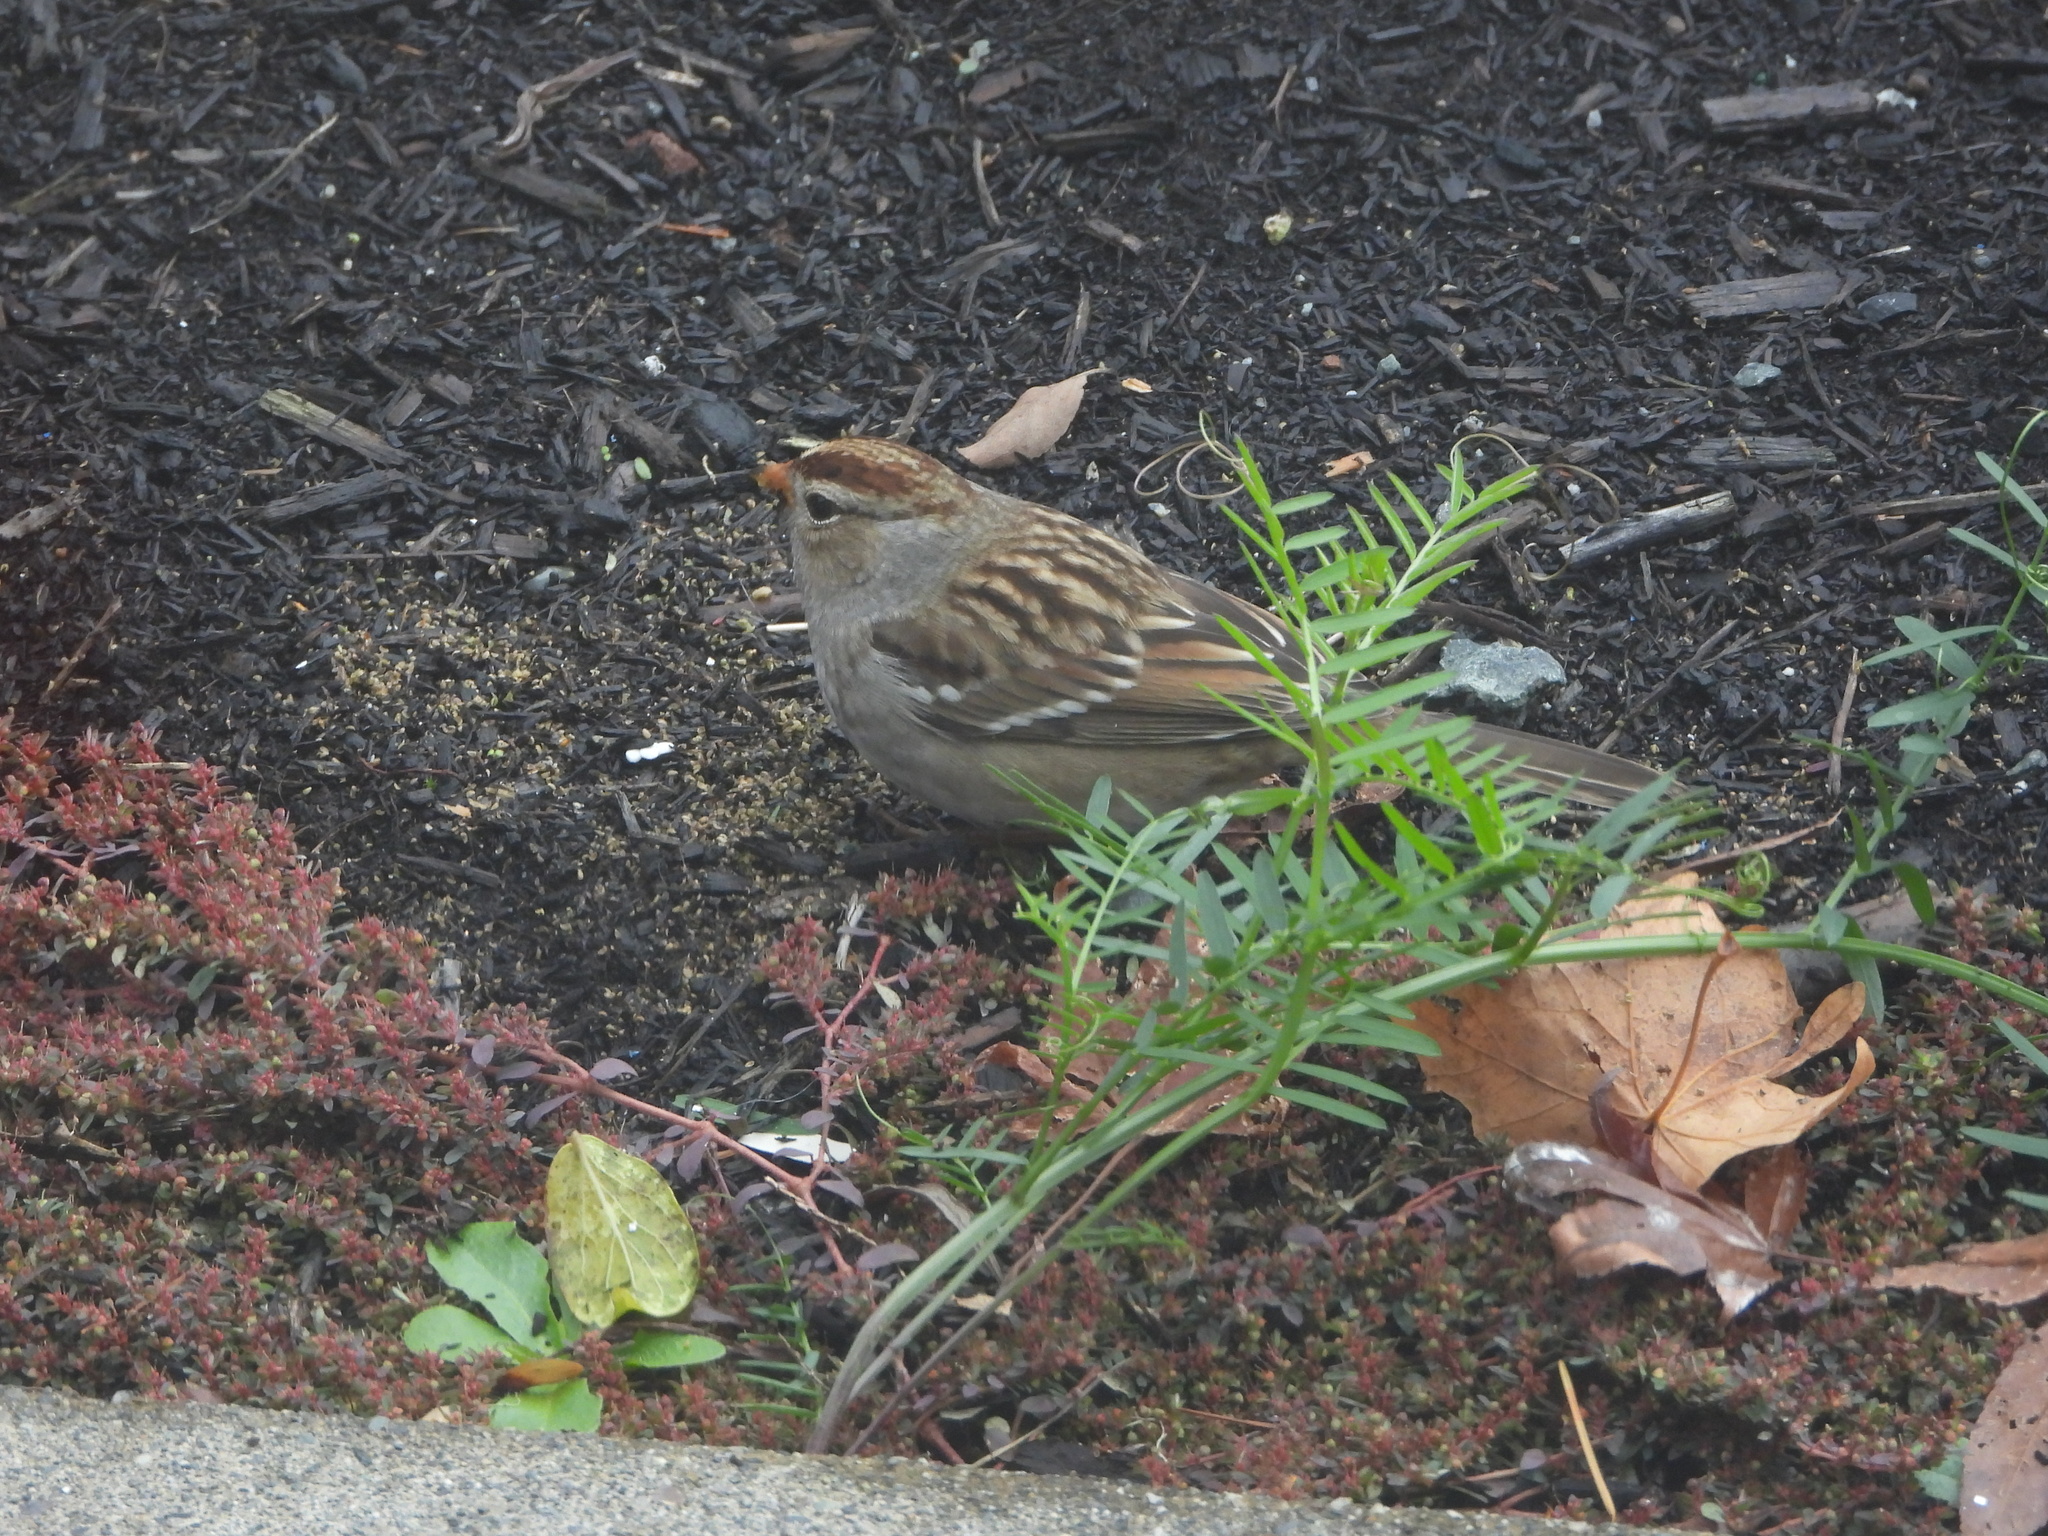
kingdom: Animalia
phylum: Chordata
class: Aves
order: Passeriformes
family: Passerellidae
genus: Zonotrichia
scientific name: Zonotrichia leucophrys
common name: White-crowned sparrow
